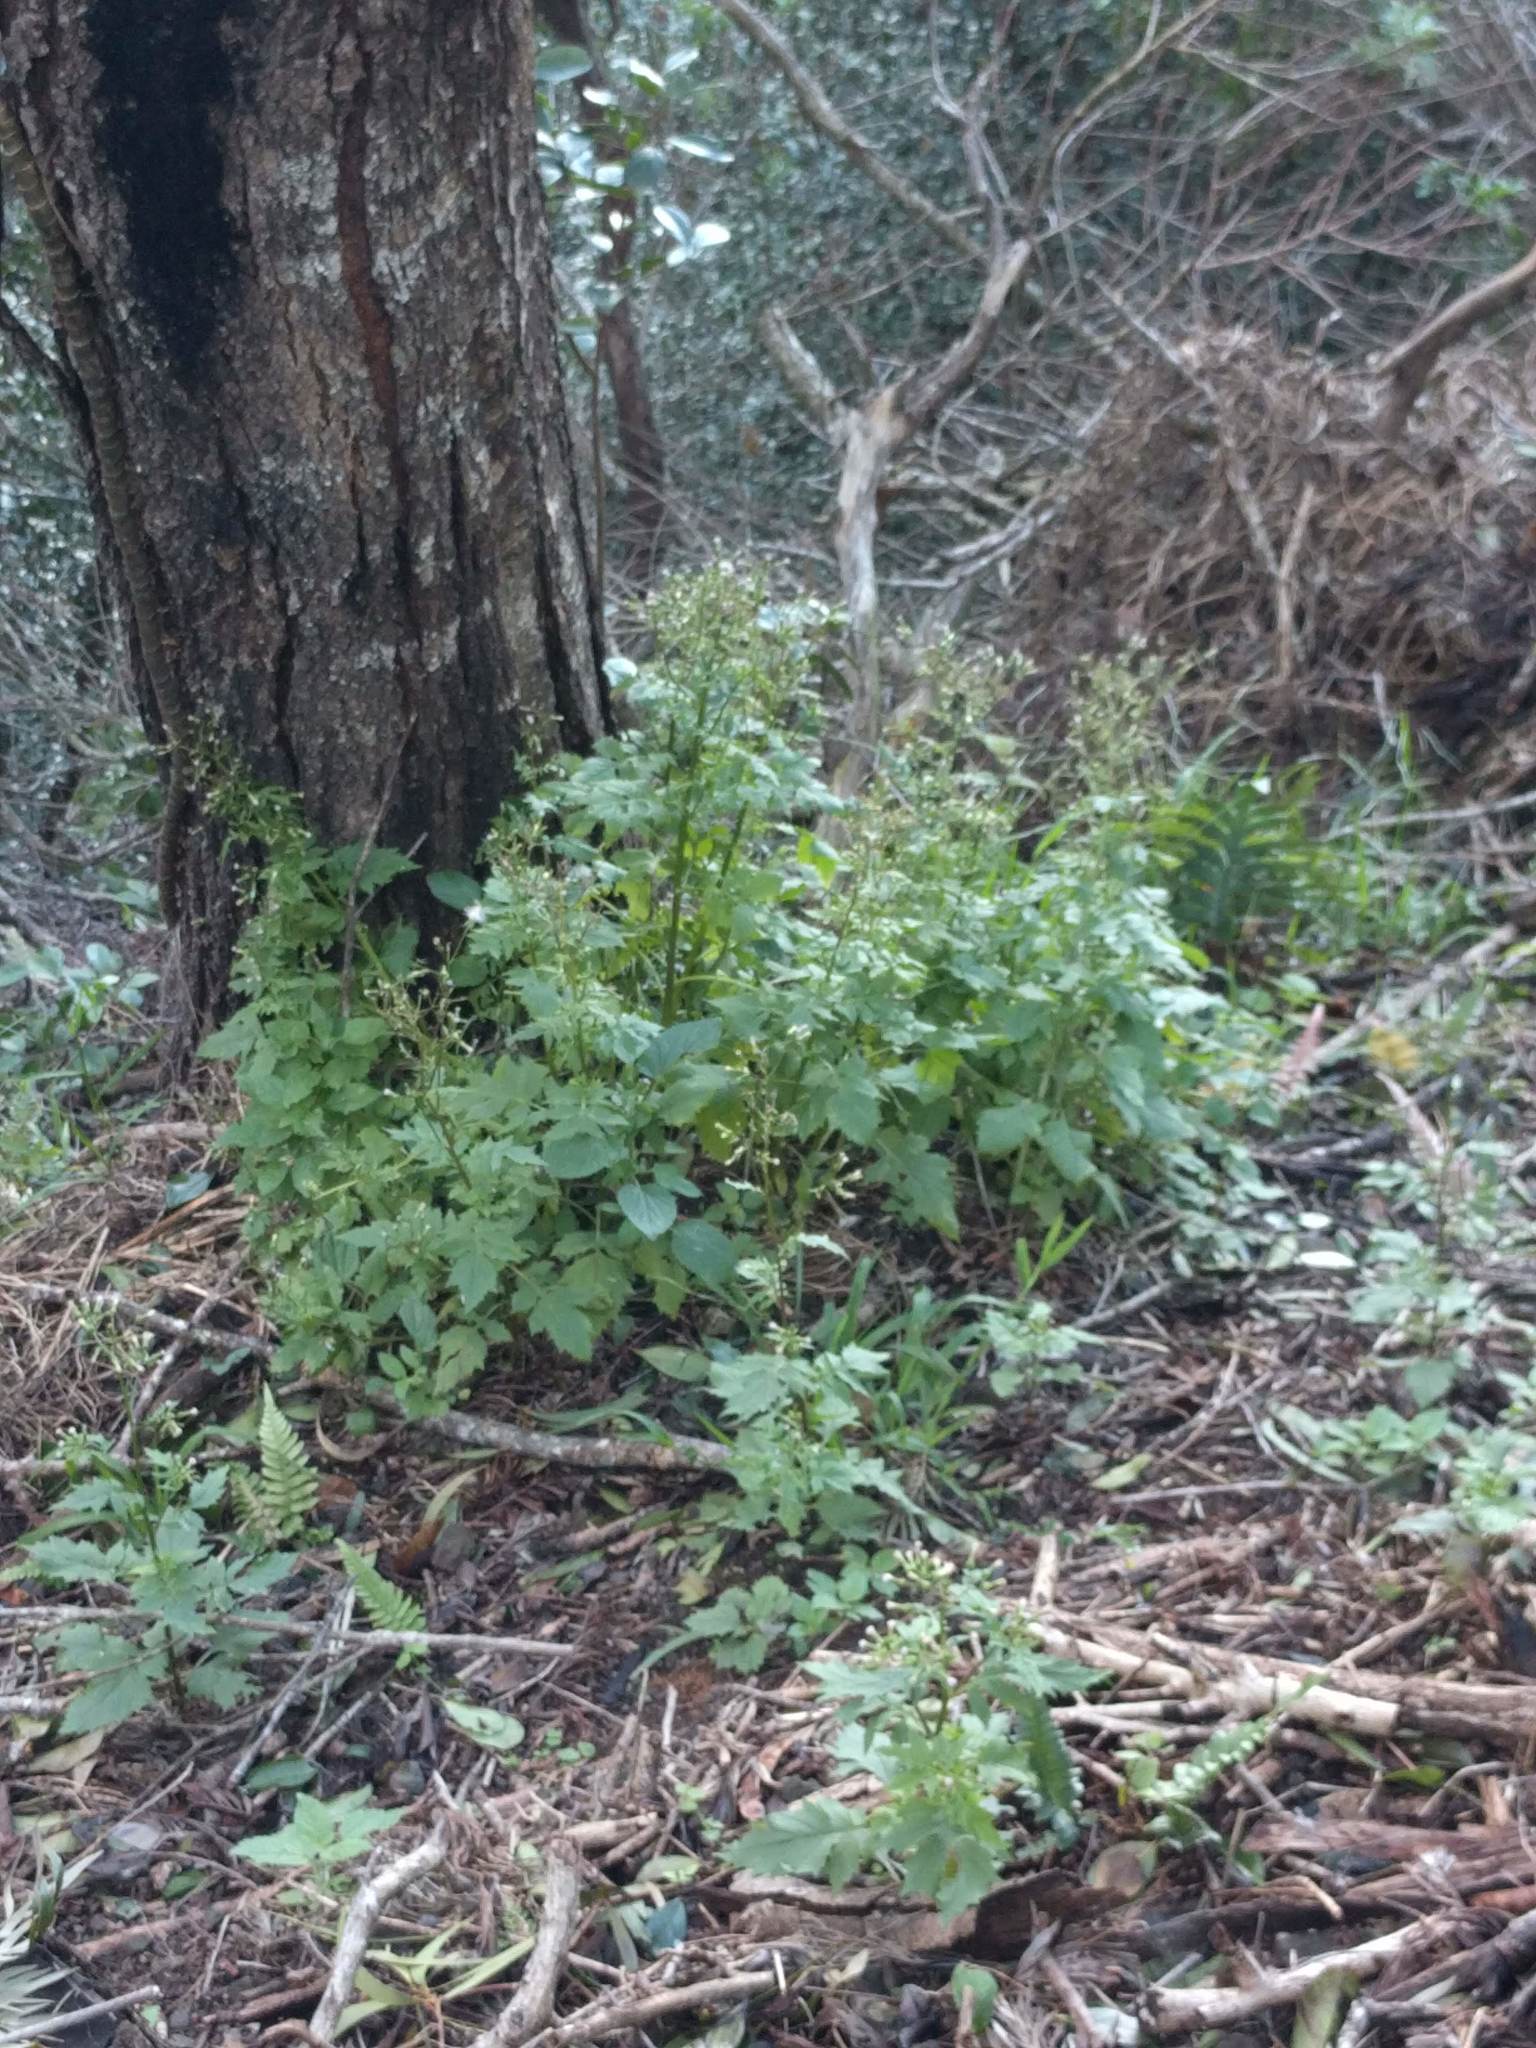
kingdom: Plantae
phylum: Tracheophyta
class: Magnoliopsida
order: Asterales
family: Asteraceae
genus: Erechtites
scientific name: Erechtites valerianifolius
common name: Tropical burnweed
